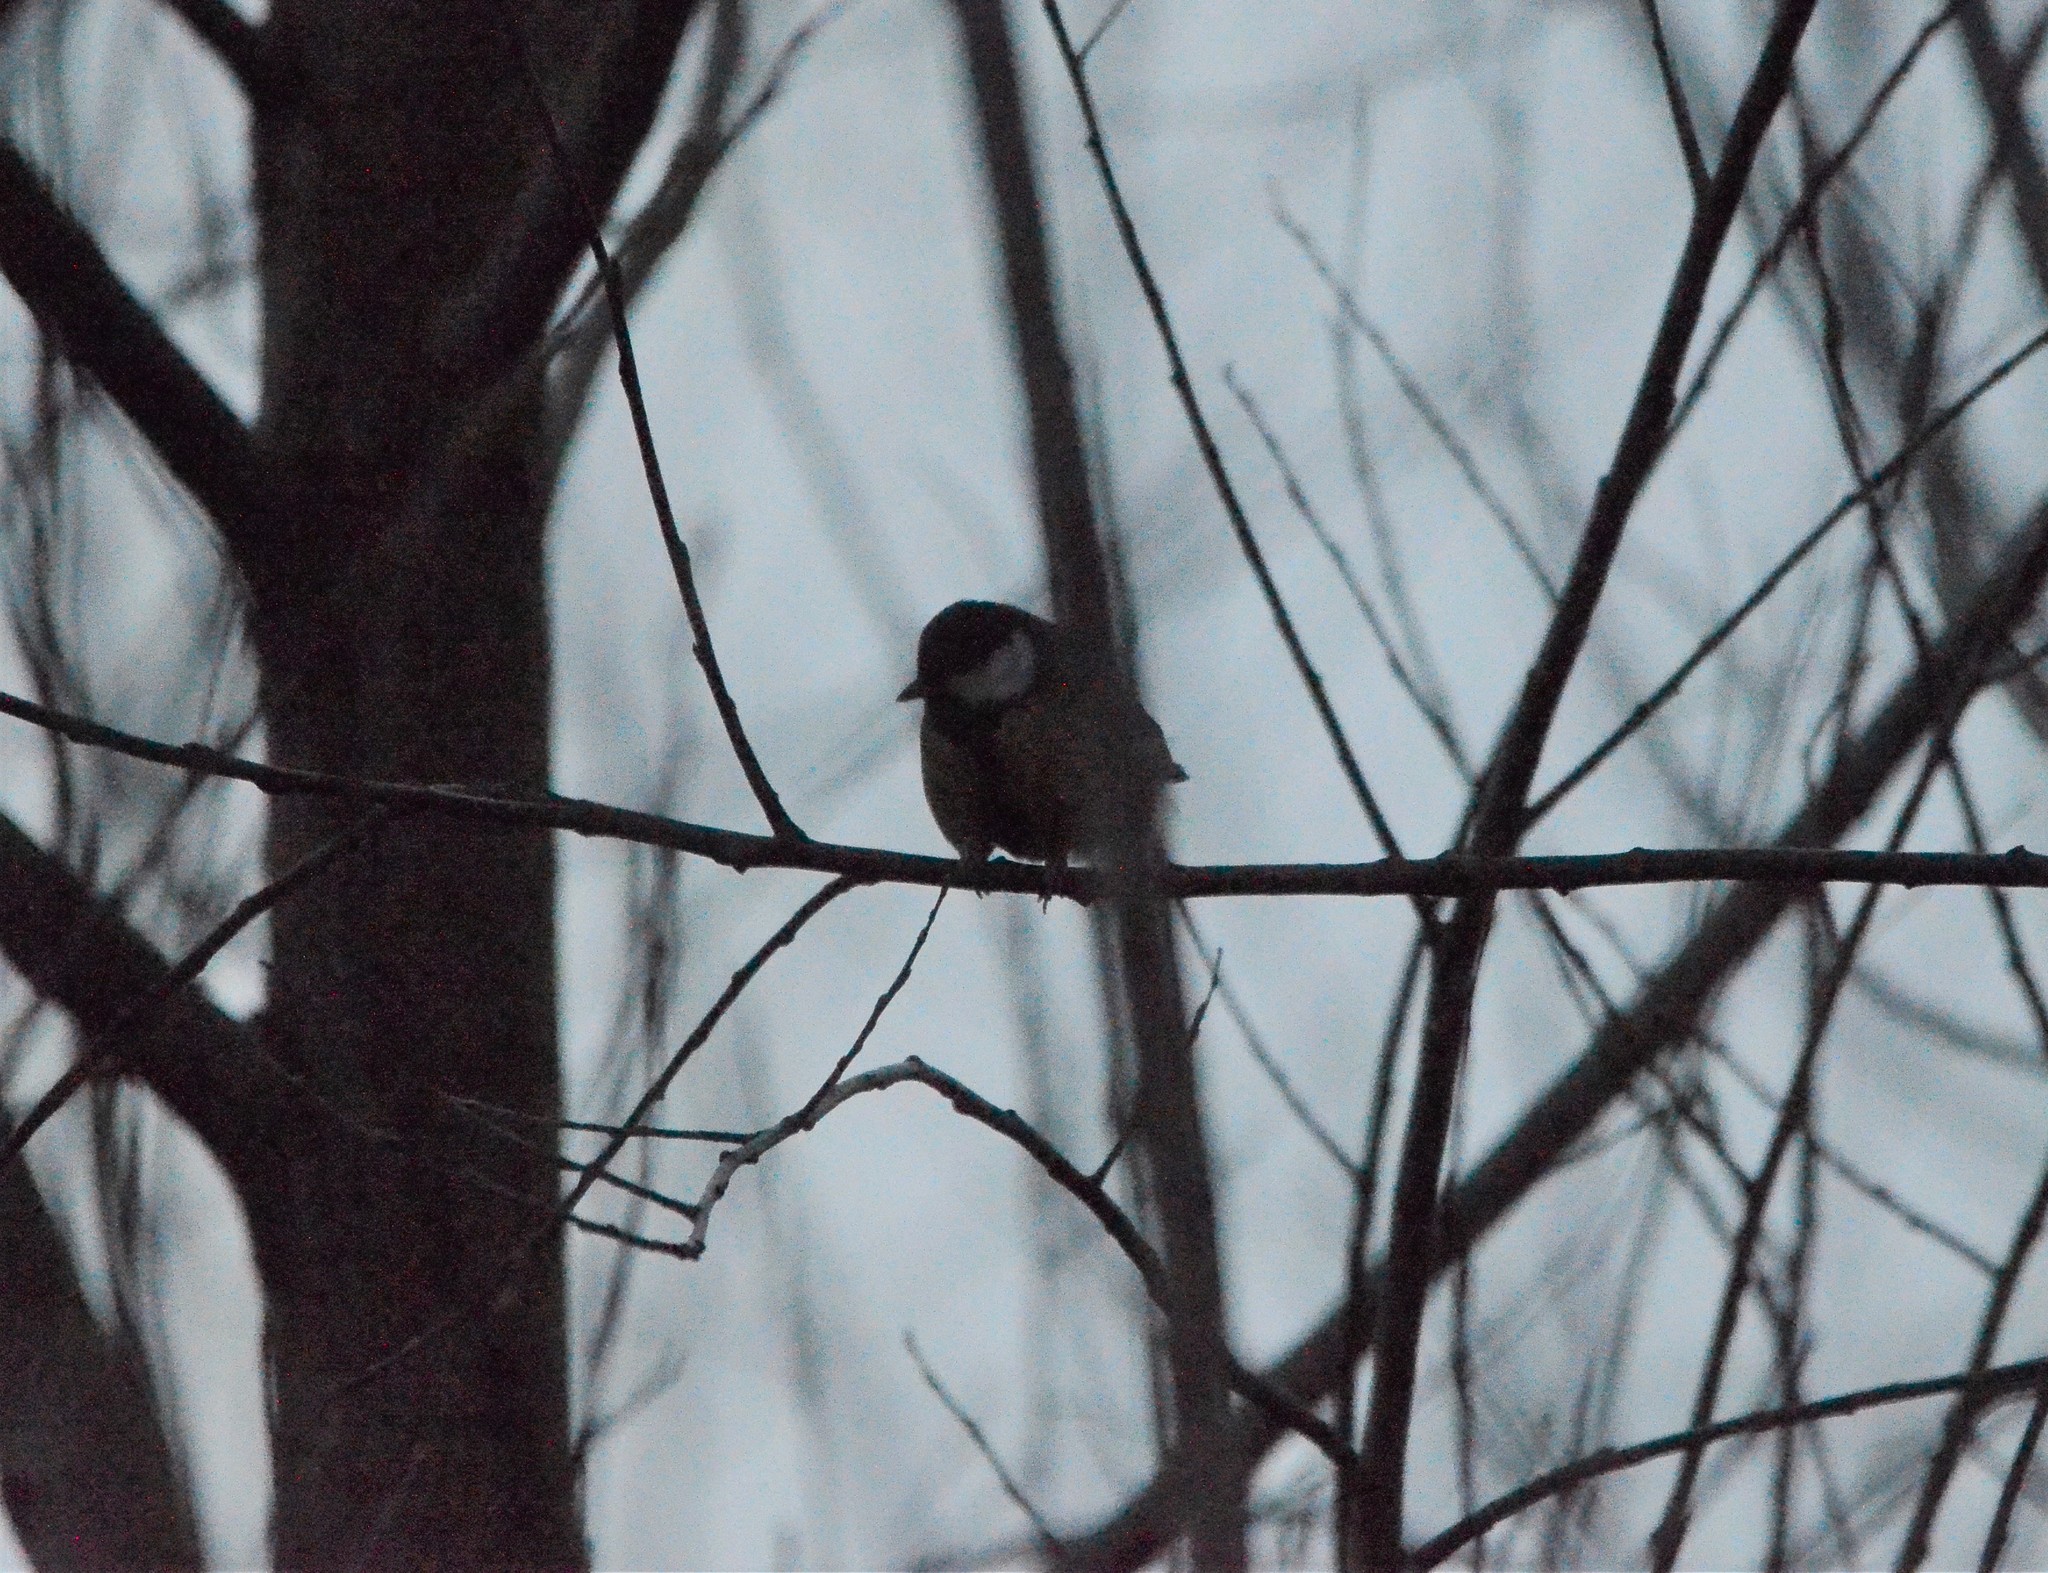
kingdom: Animalia
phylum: Chordata
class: Aves
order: Passeriformes
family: Paridae
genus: Parus
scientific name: Parus major
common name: Great tit
